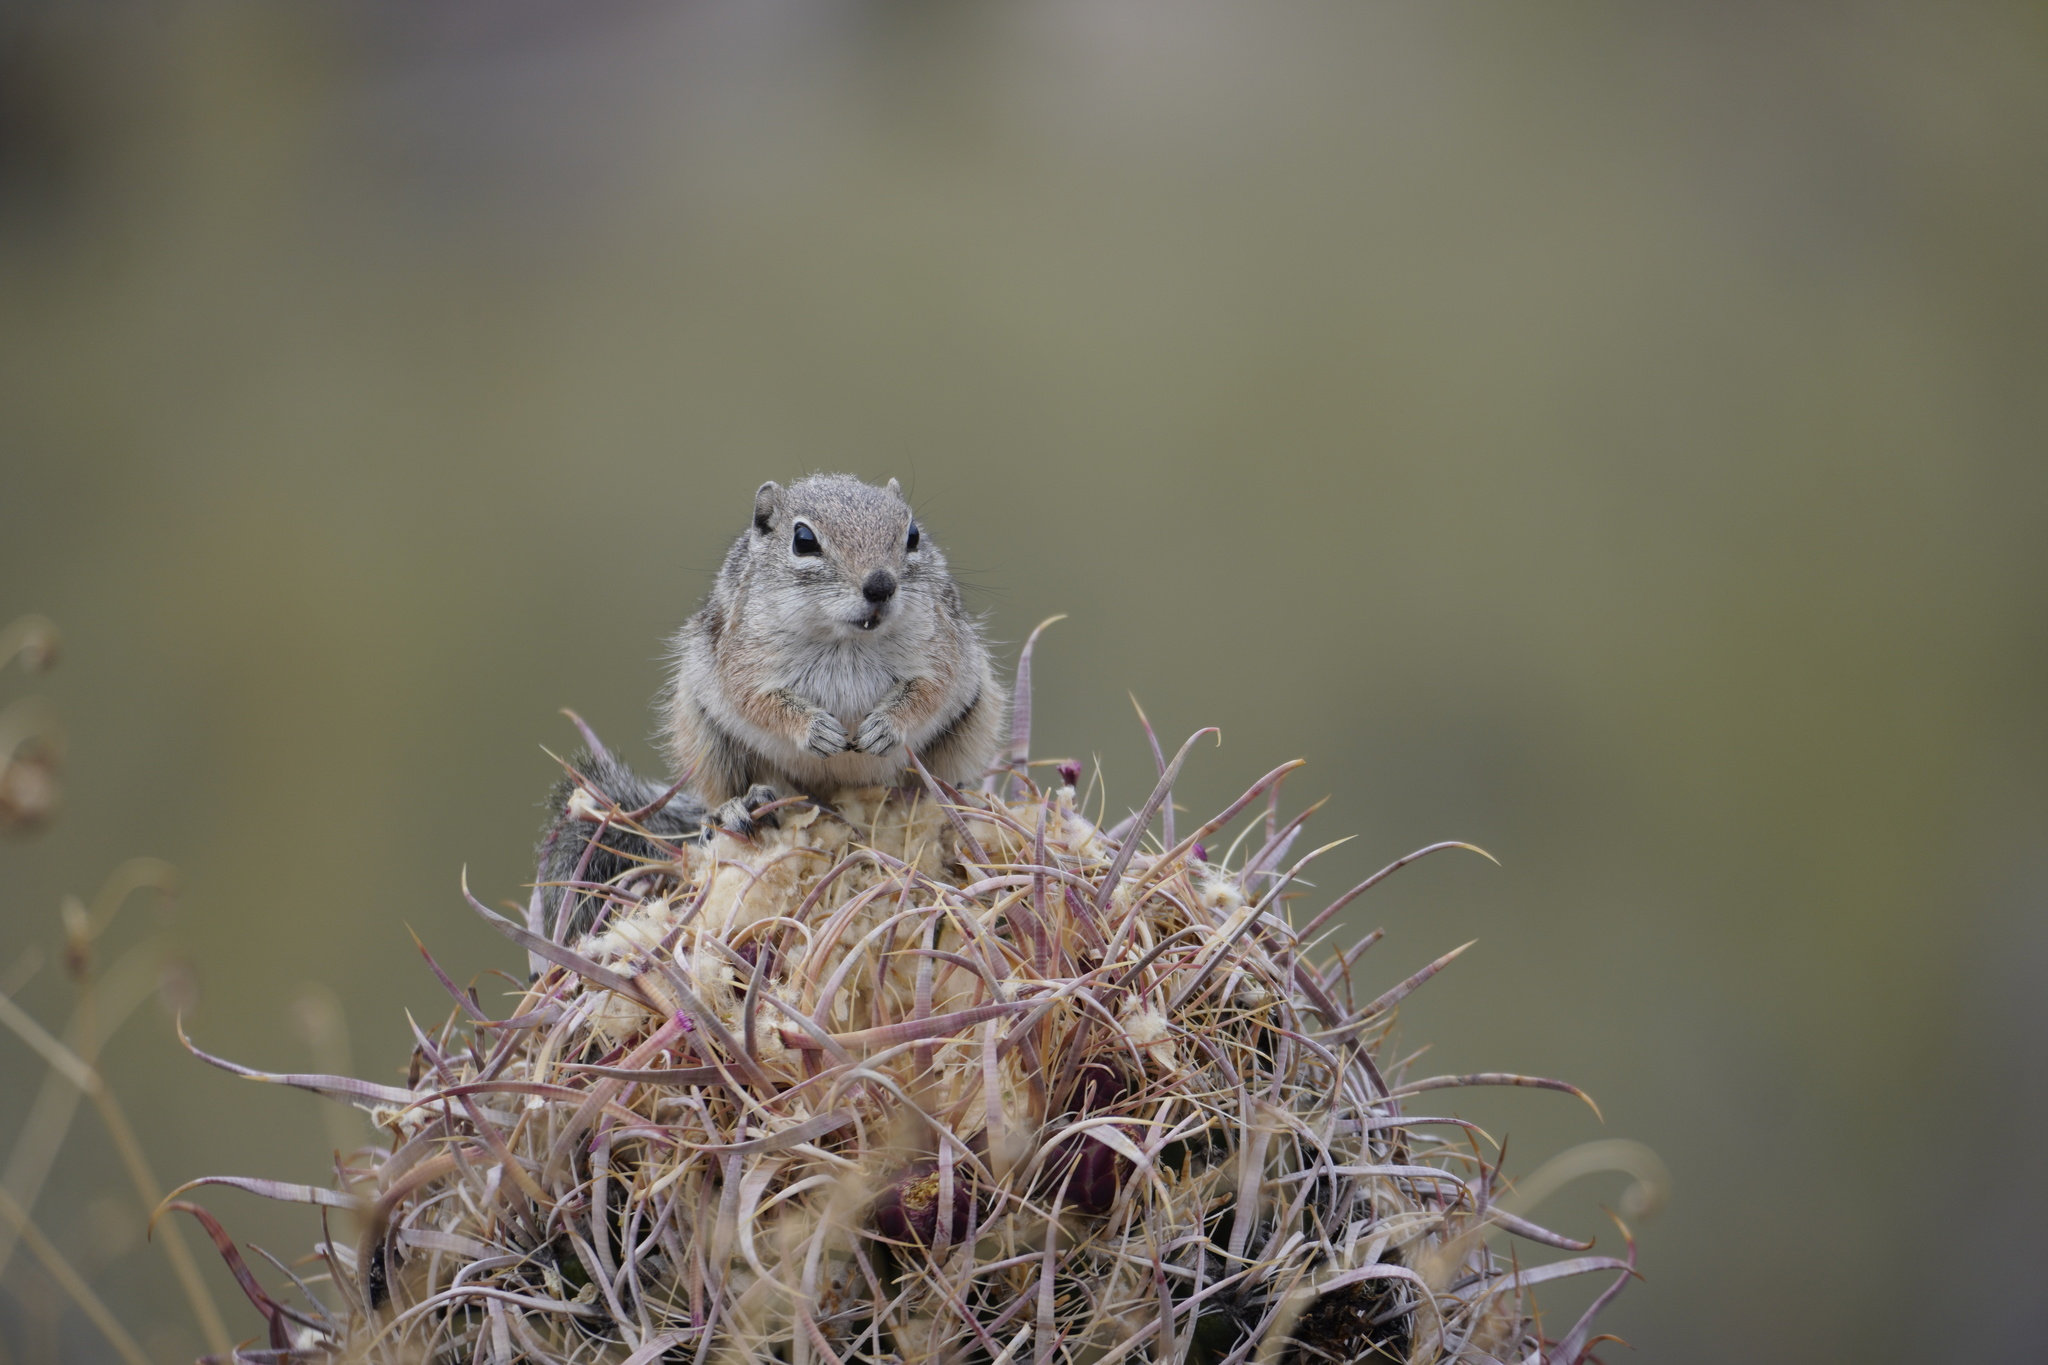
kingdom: Animalia
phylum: Chordata
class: Mammalia
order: Rodentia
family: Sciuridae
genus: Ammospermophilus
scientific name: Ammospermophilus harrisii
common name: Harris's antelope squirrel
